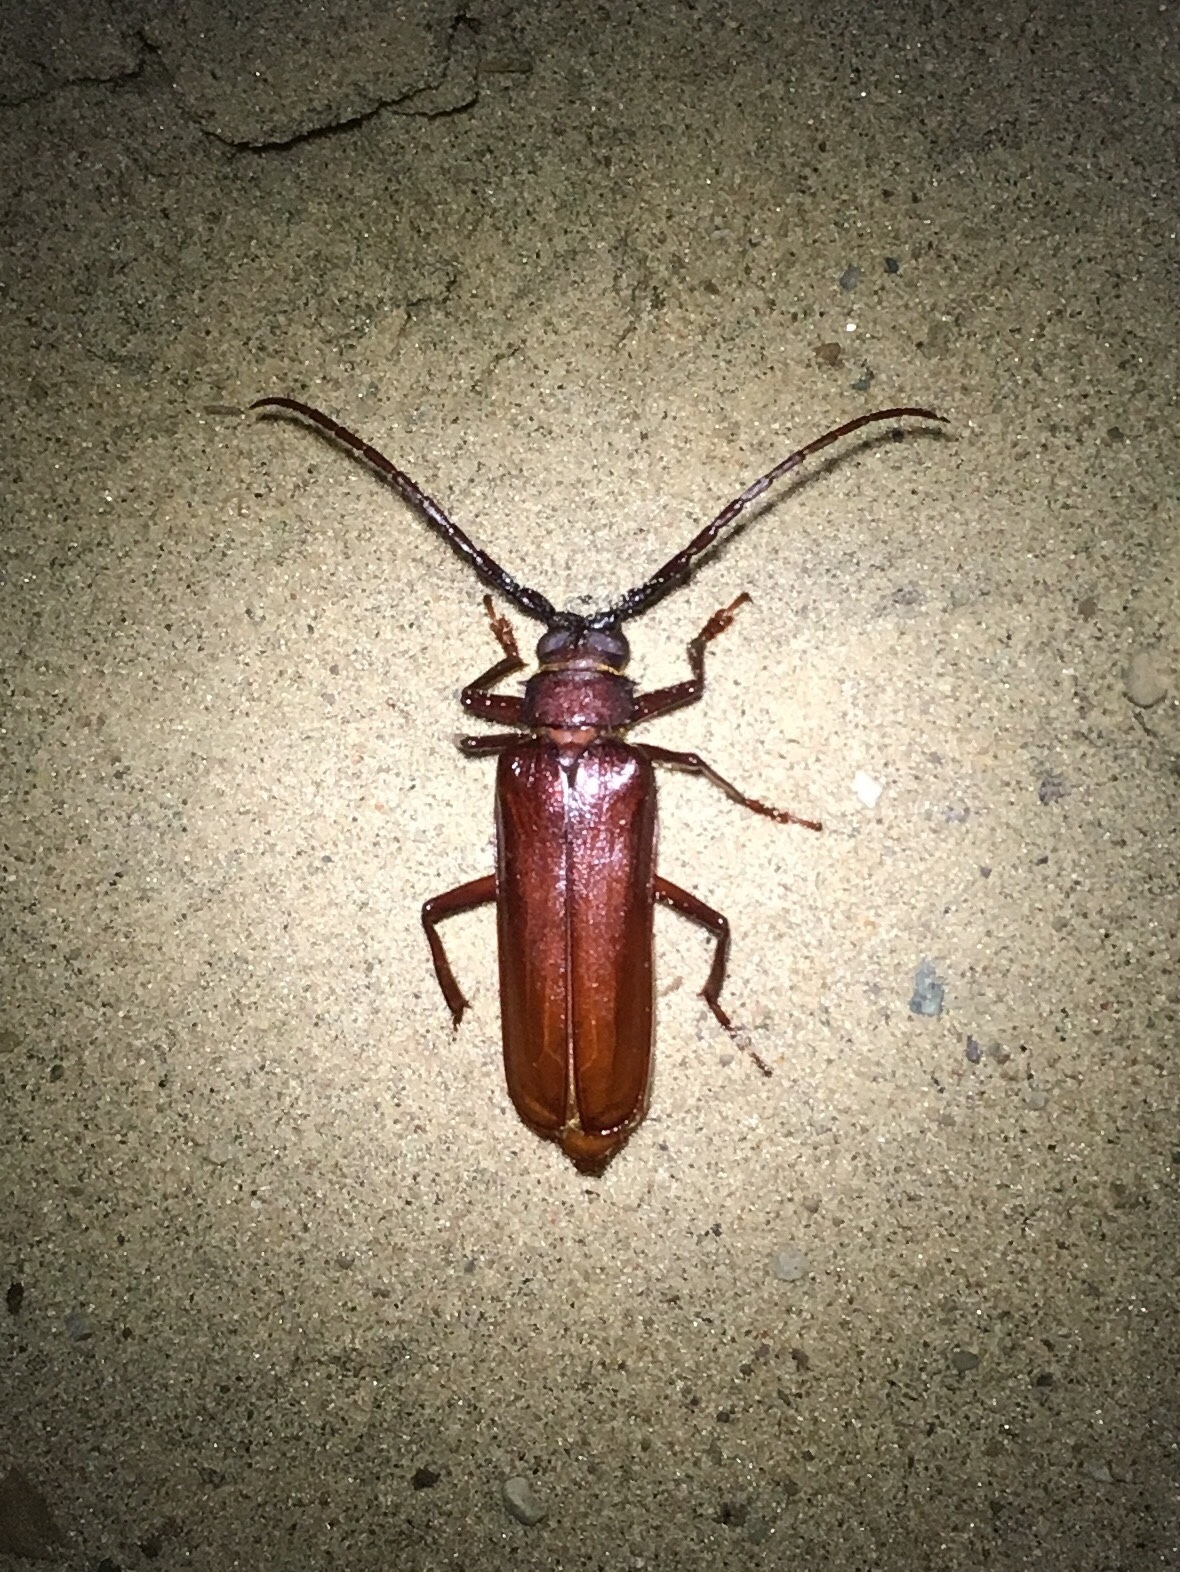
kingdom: Animalia
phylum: Arthropoda
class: Insecta
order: Coleoptera
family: Cerambycidae
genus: Orthosoma
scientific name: Orthosoma brunneum
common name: Brown prionid beetle
